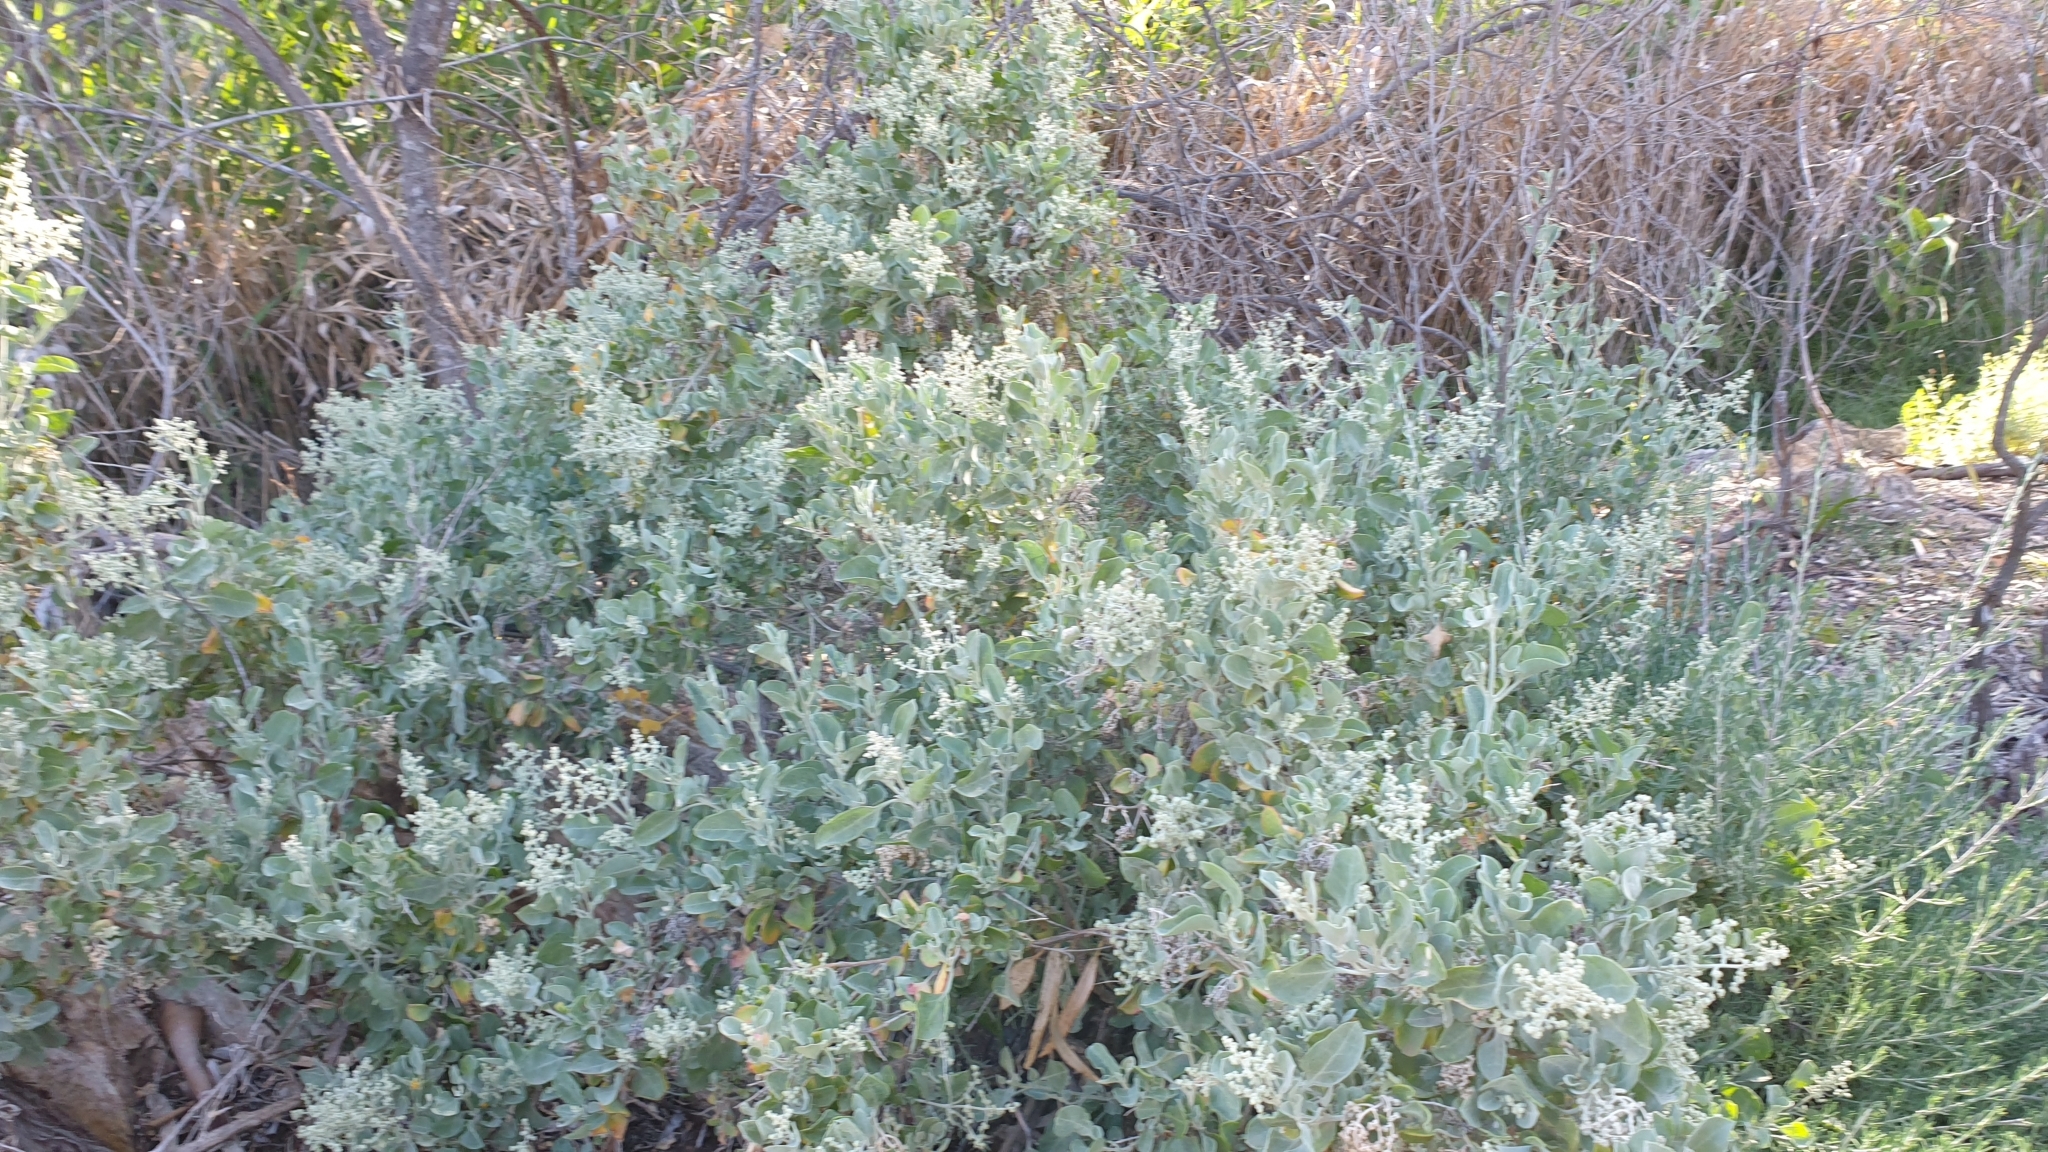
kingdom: Plantae
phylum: Tracheophyta
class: Magnoliopsida
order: Caryophyllales
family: Amaranthaceae
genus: Chenopodium
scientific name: Chenopodium parabolicum
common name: Old-man-saltbush
